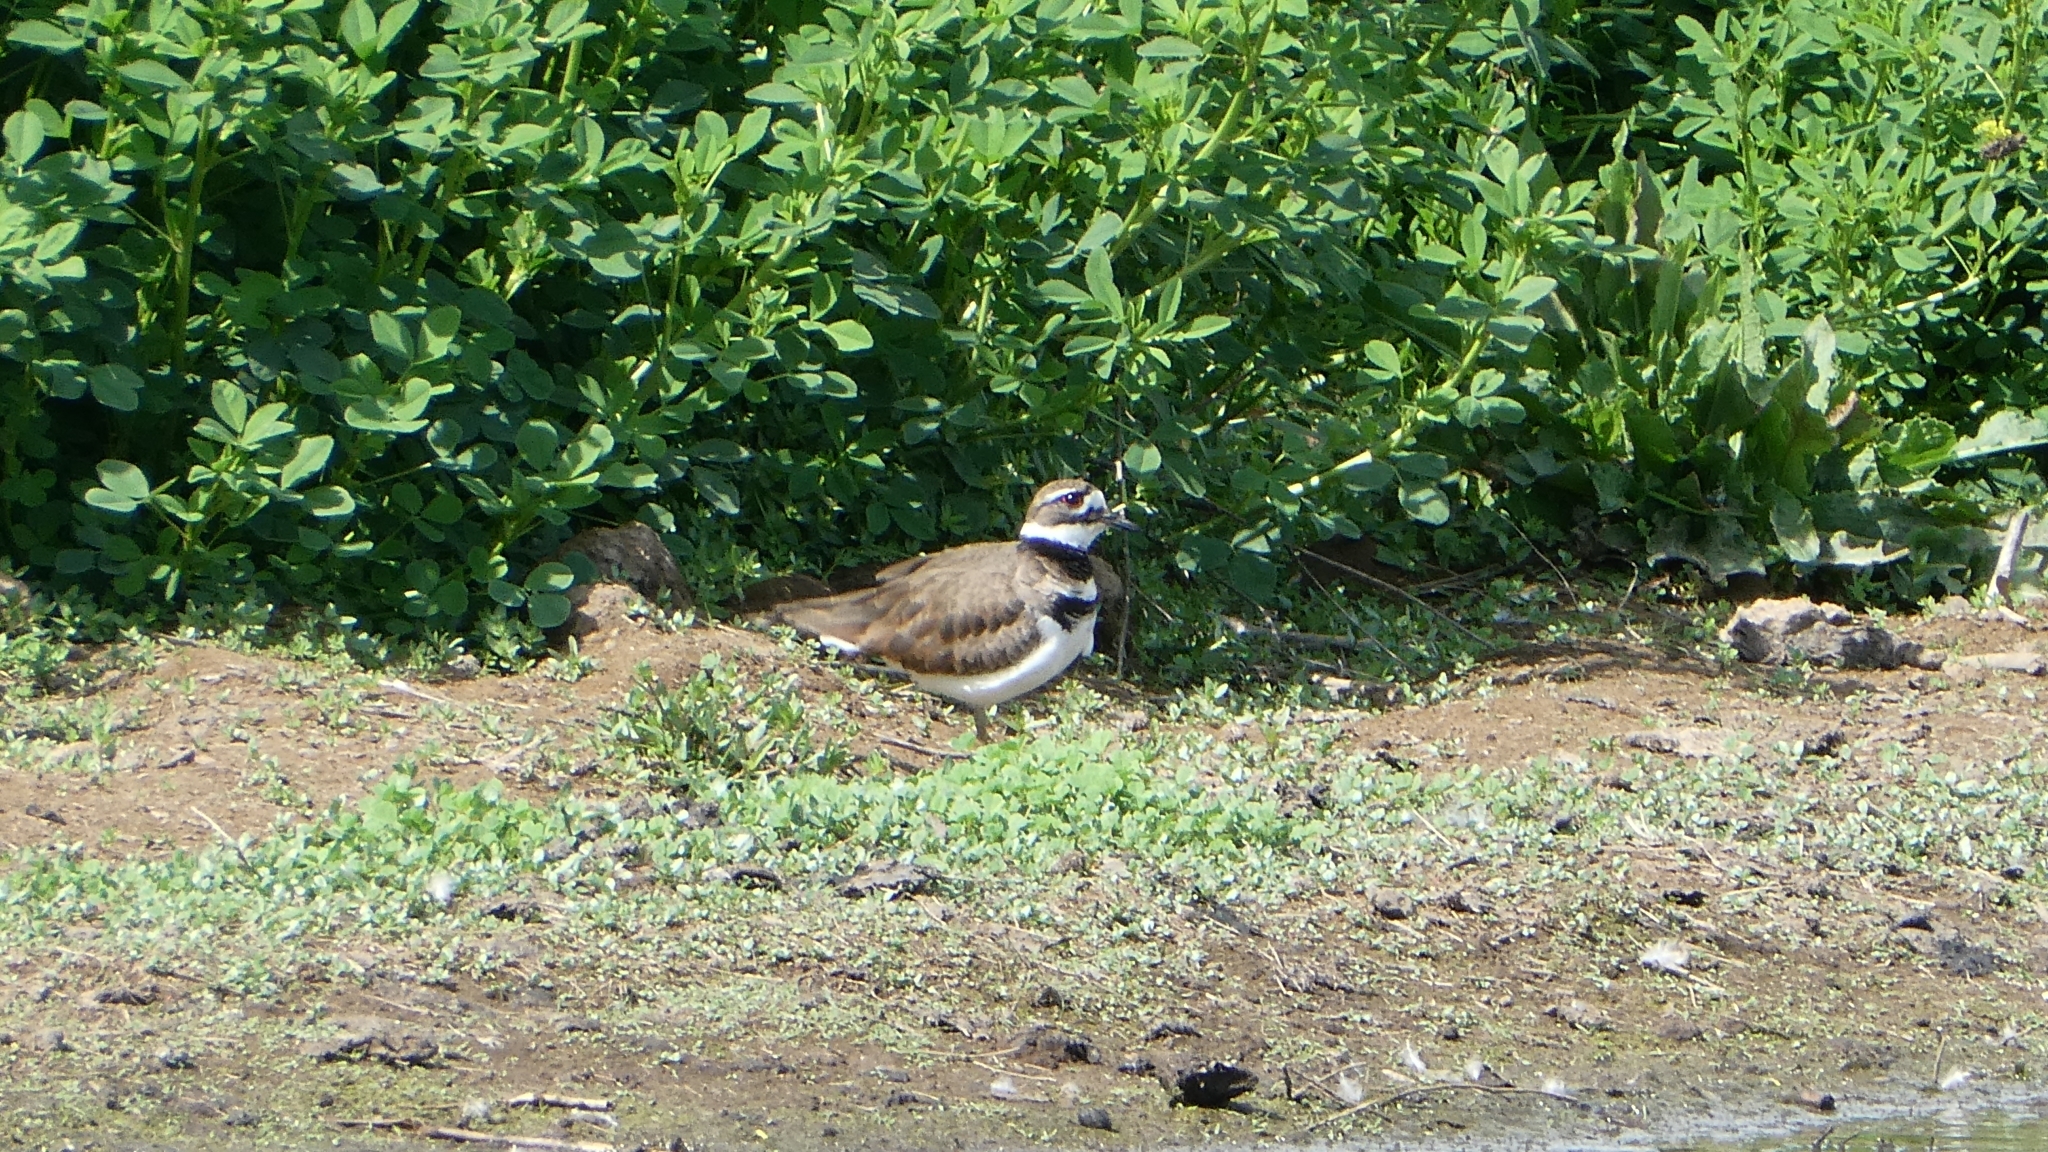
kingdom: Animalia
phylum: Chordata
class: Aves
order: Charadriiformes
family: Charadriidae
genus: Charadrius
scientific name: Charadrius vociferus
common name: Killdeer
